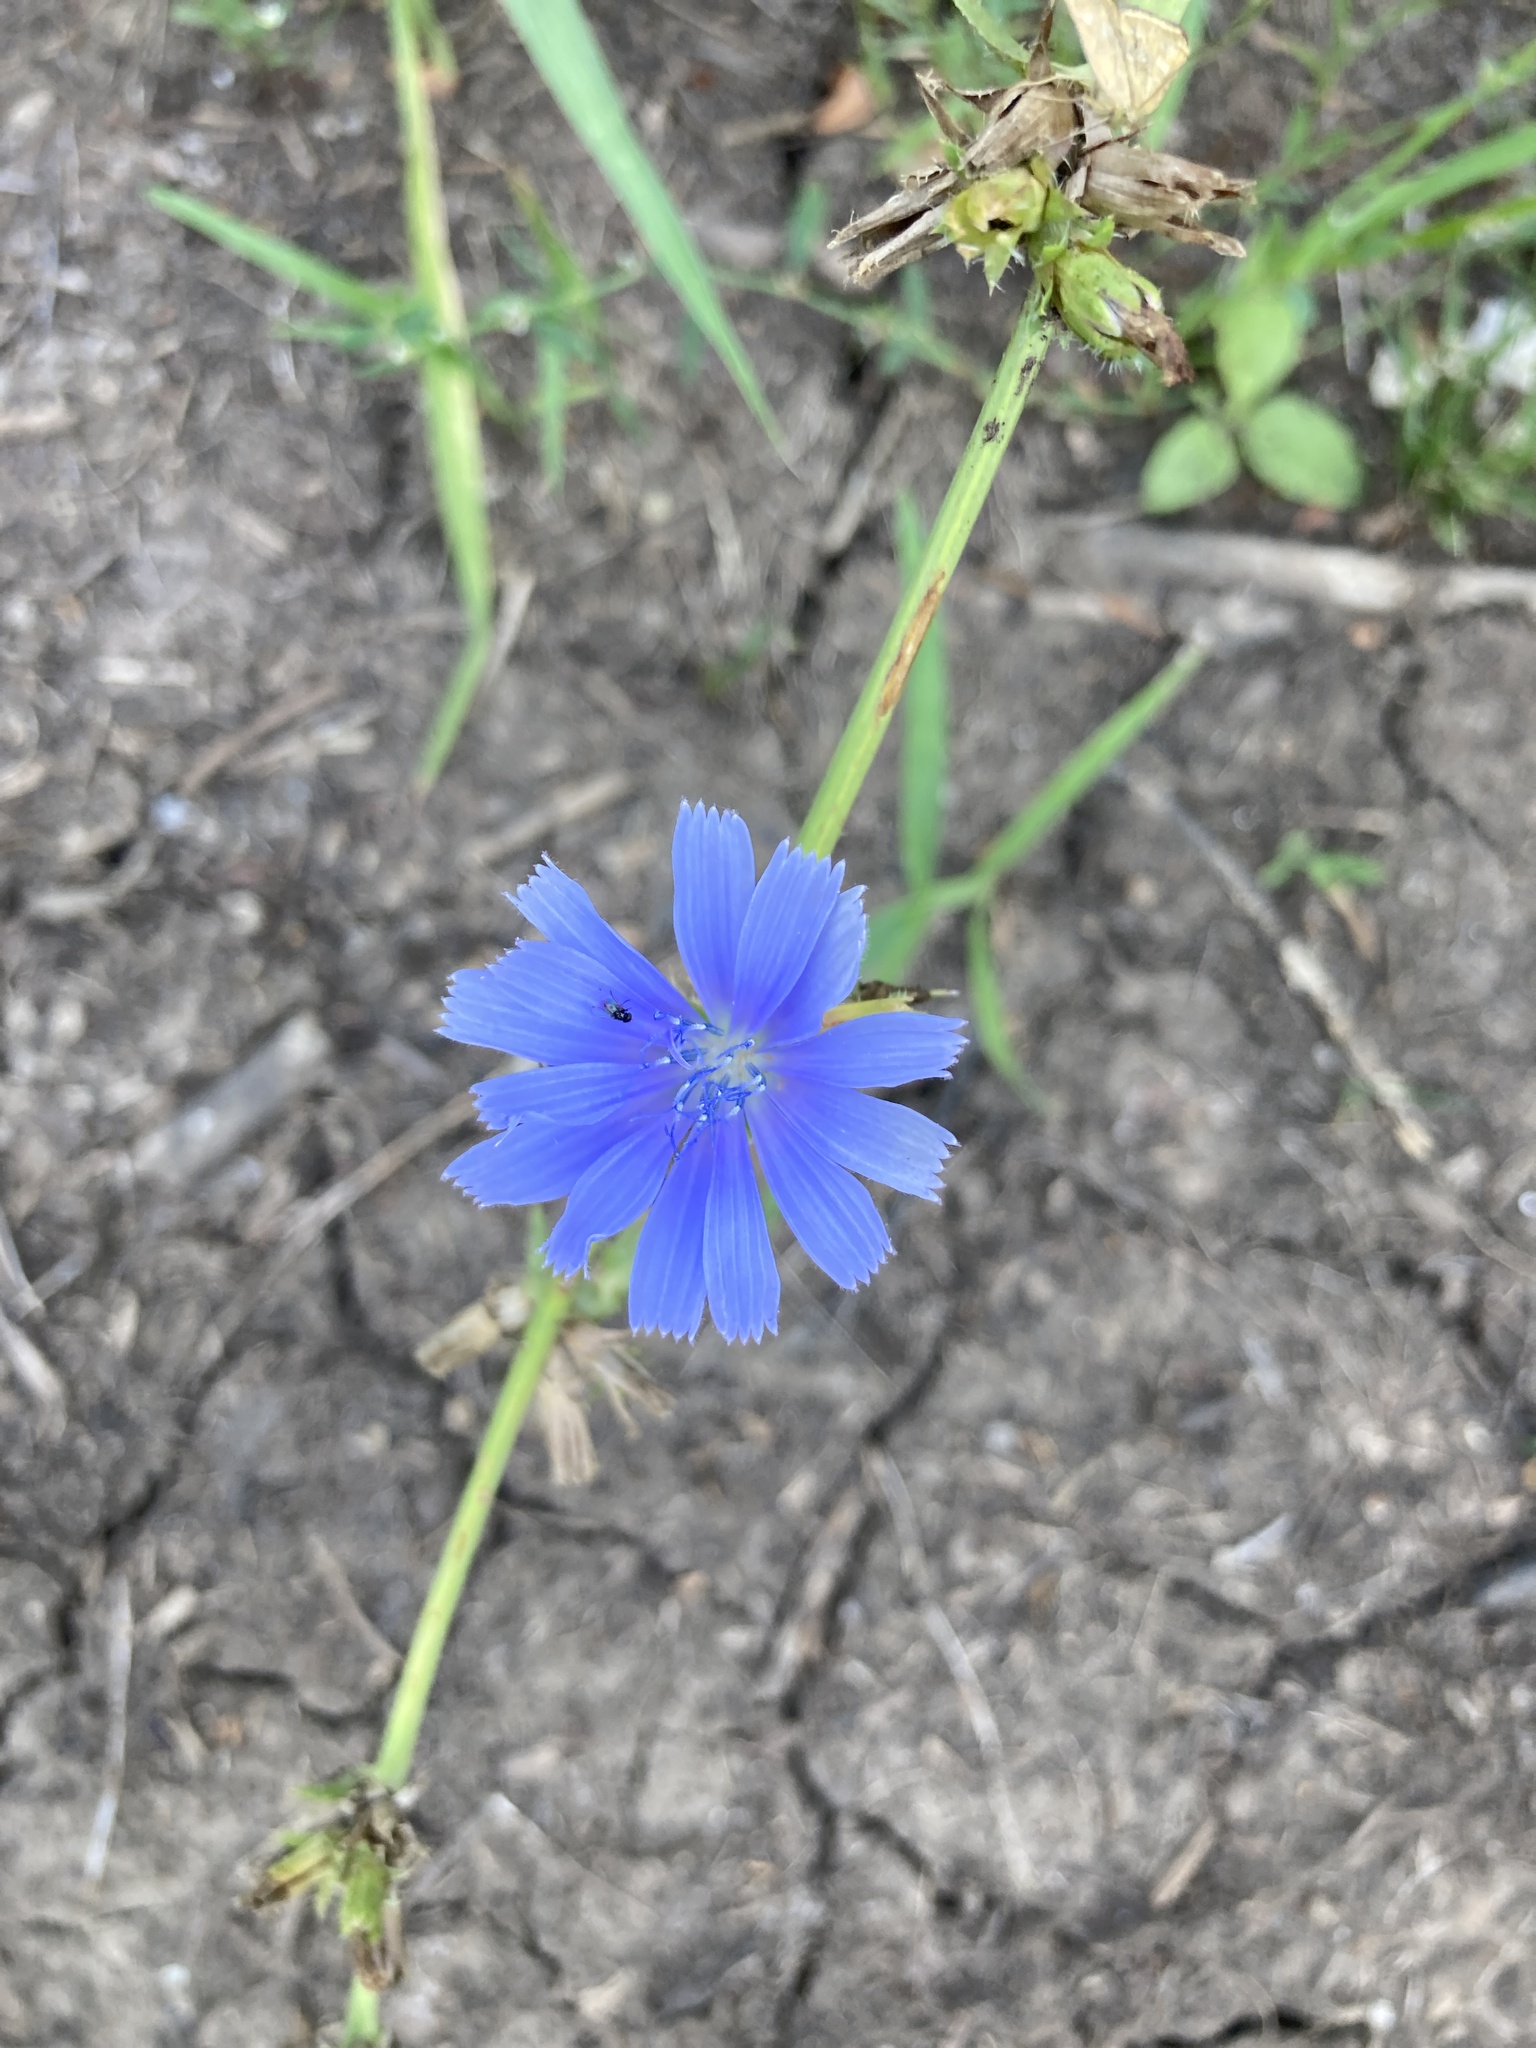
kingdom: Plantae
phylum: Tracheophyta
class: Magnoliopsida
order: Asterales
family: Asteraceae
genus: Cichorium
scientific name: Cichorium intybus
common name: Chicory
